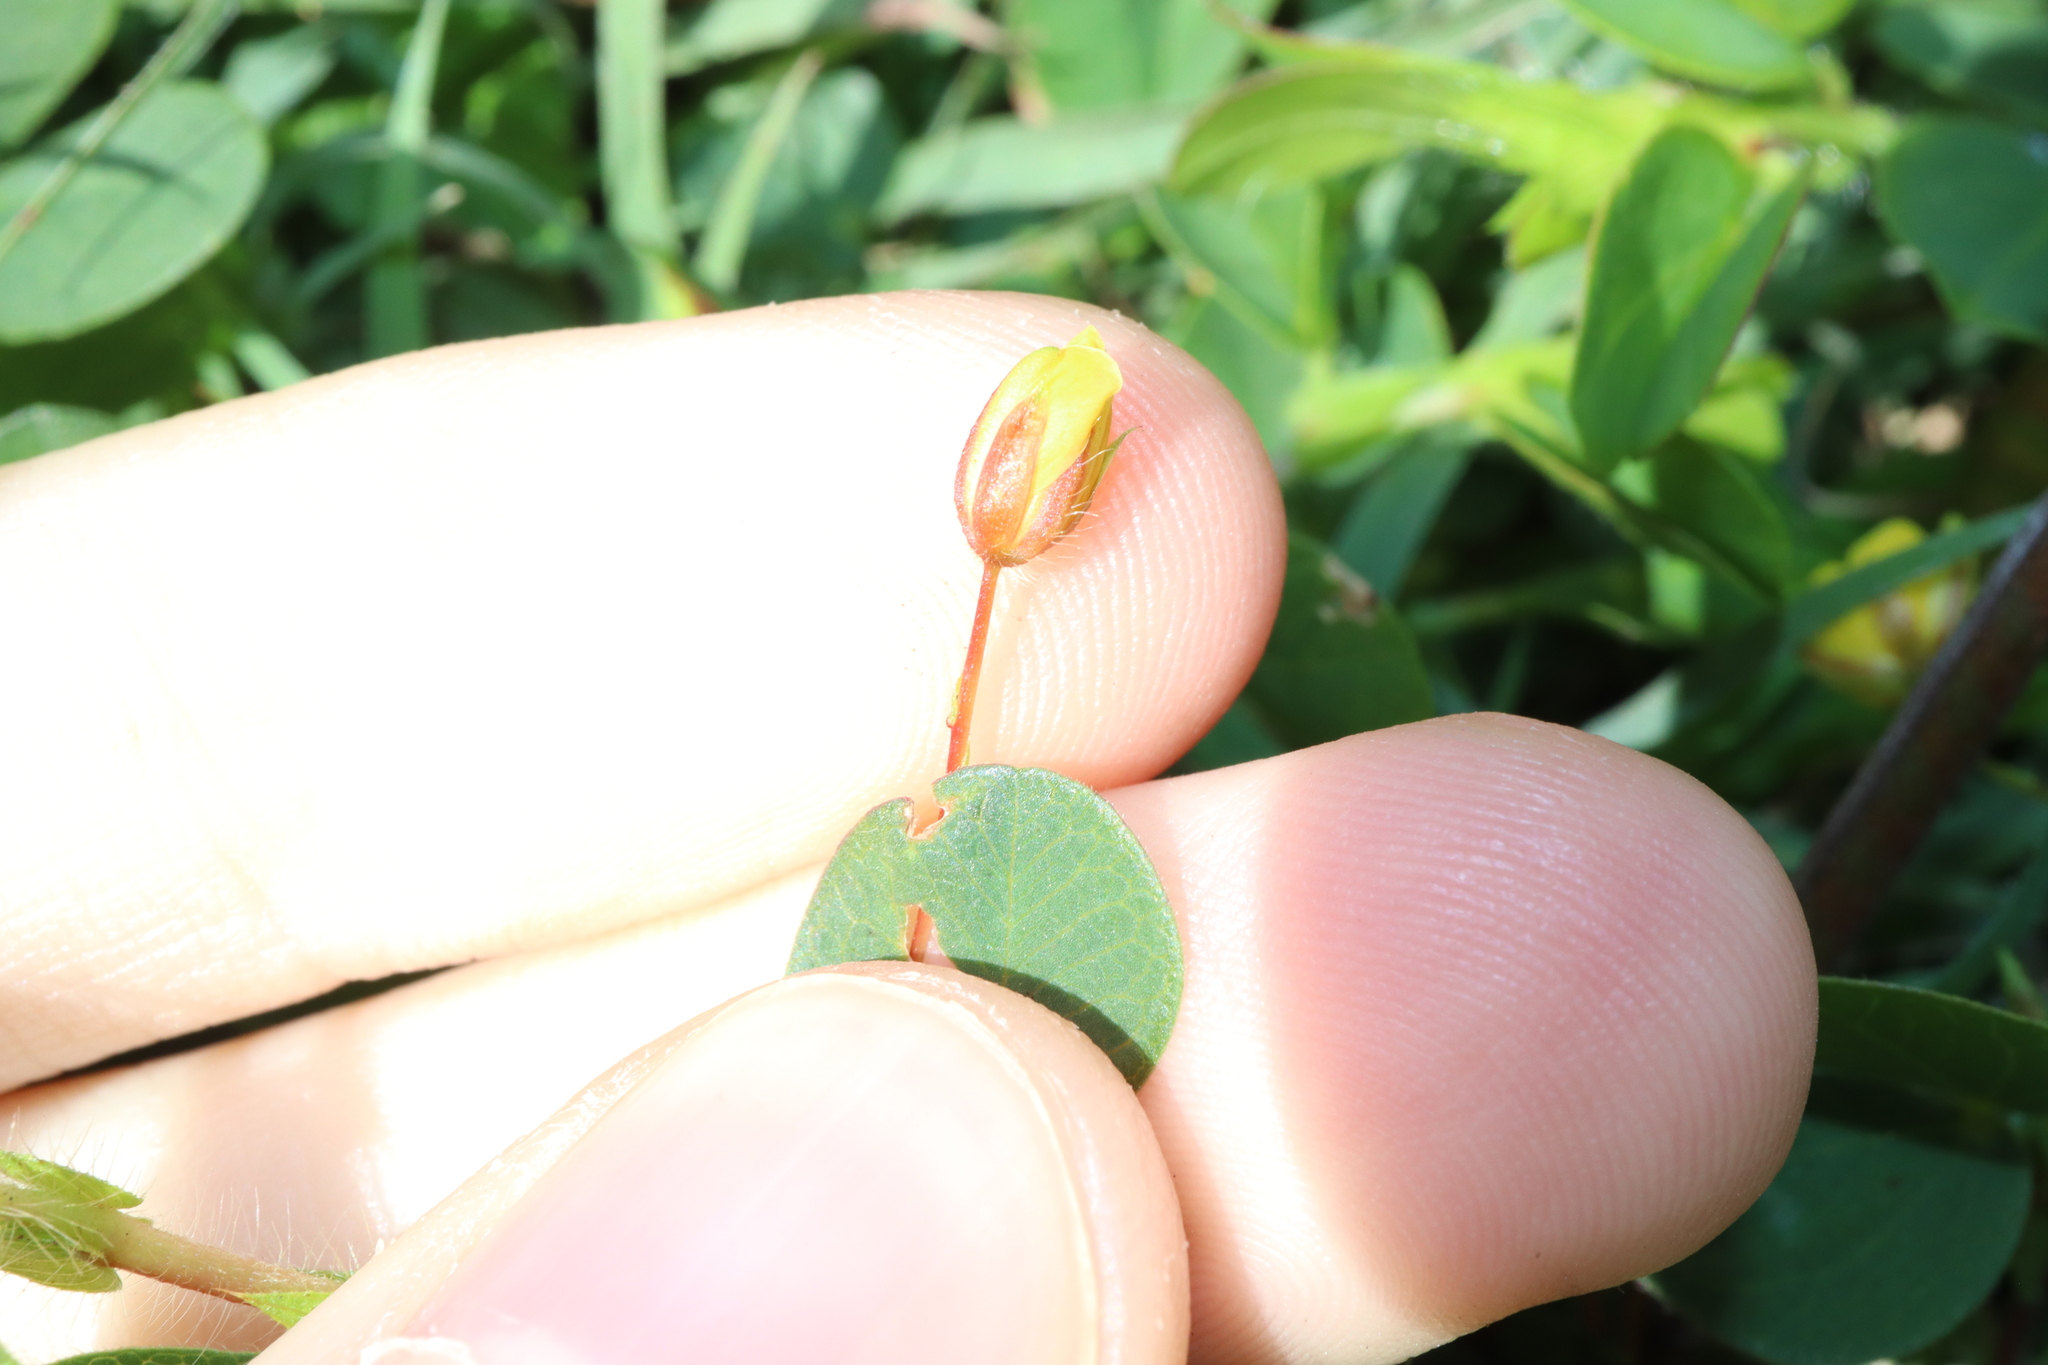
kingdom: Plantae
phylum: Tracheophyta
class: Magnoliopsida
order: Fabales
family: Fabaceae
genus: Chamaecrista
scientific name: Chamaecrista rotundifolia
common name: Round-leaf cassia
